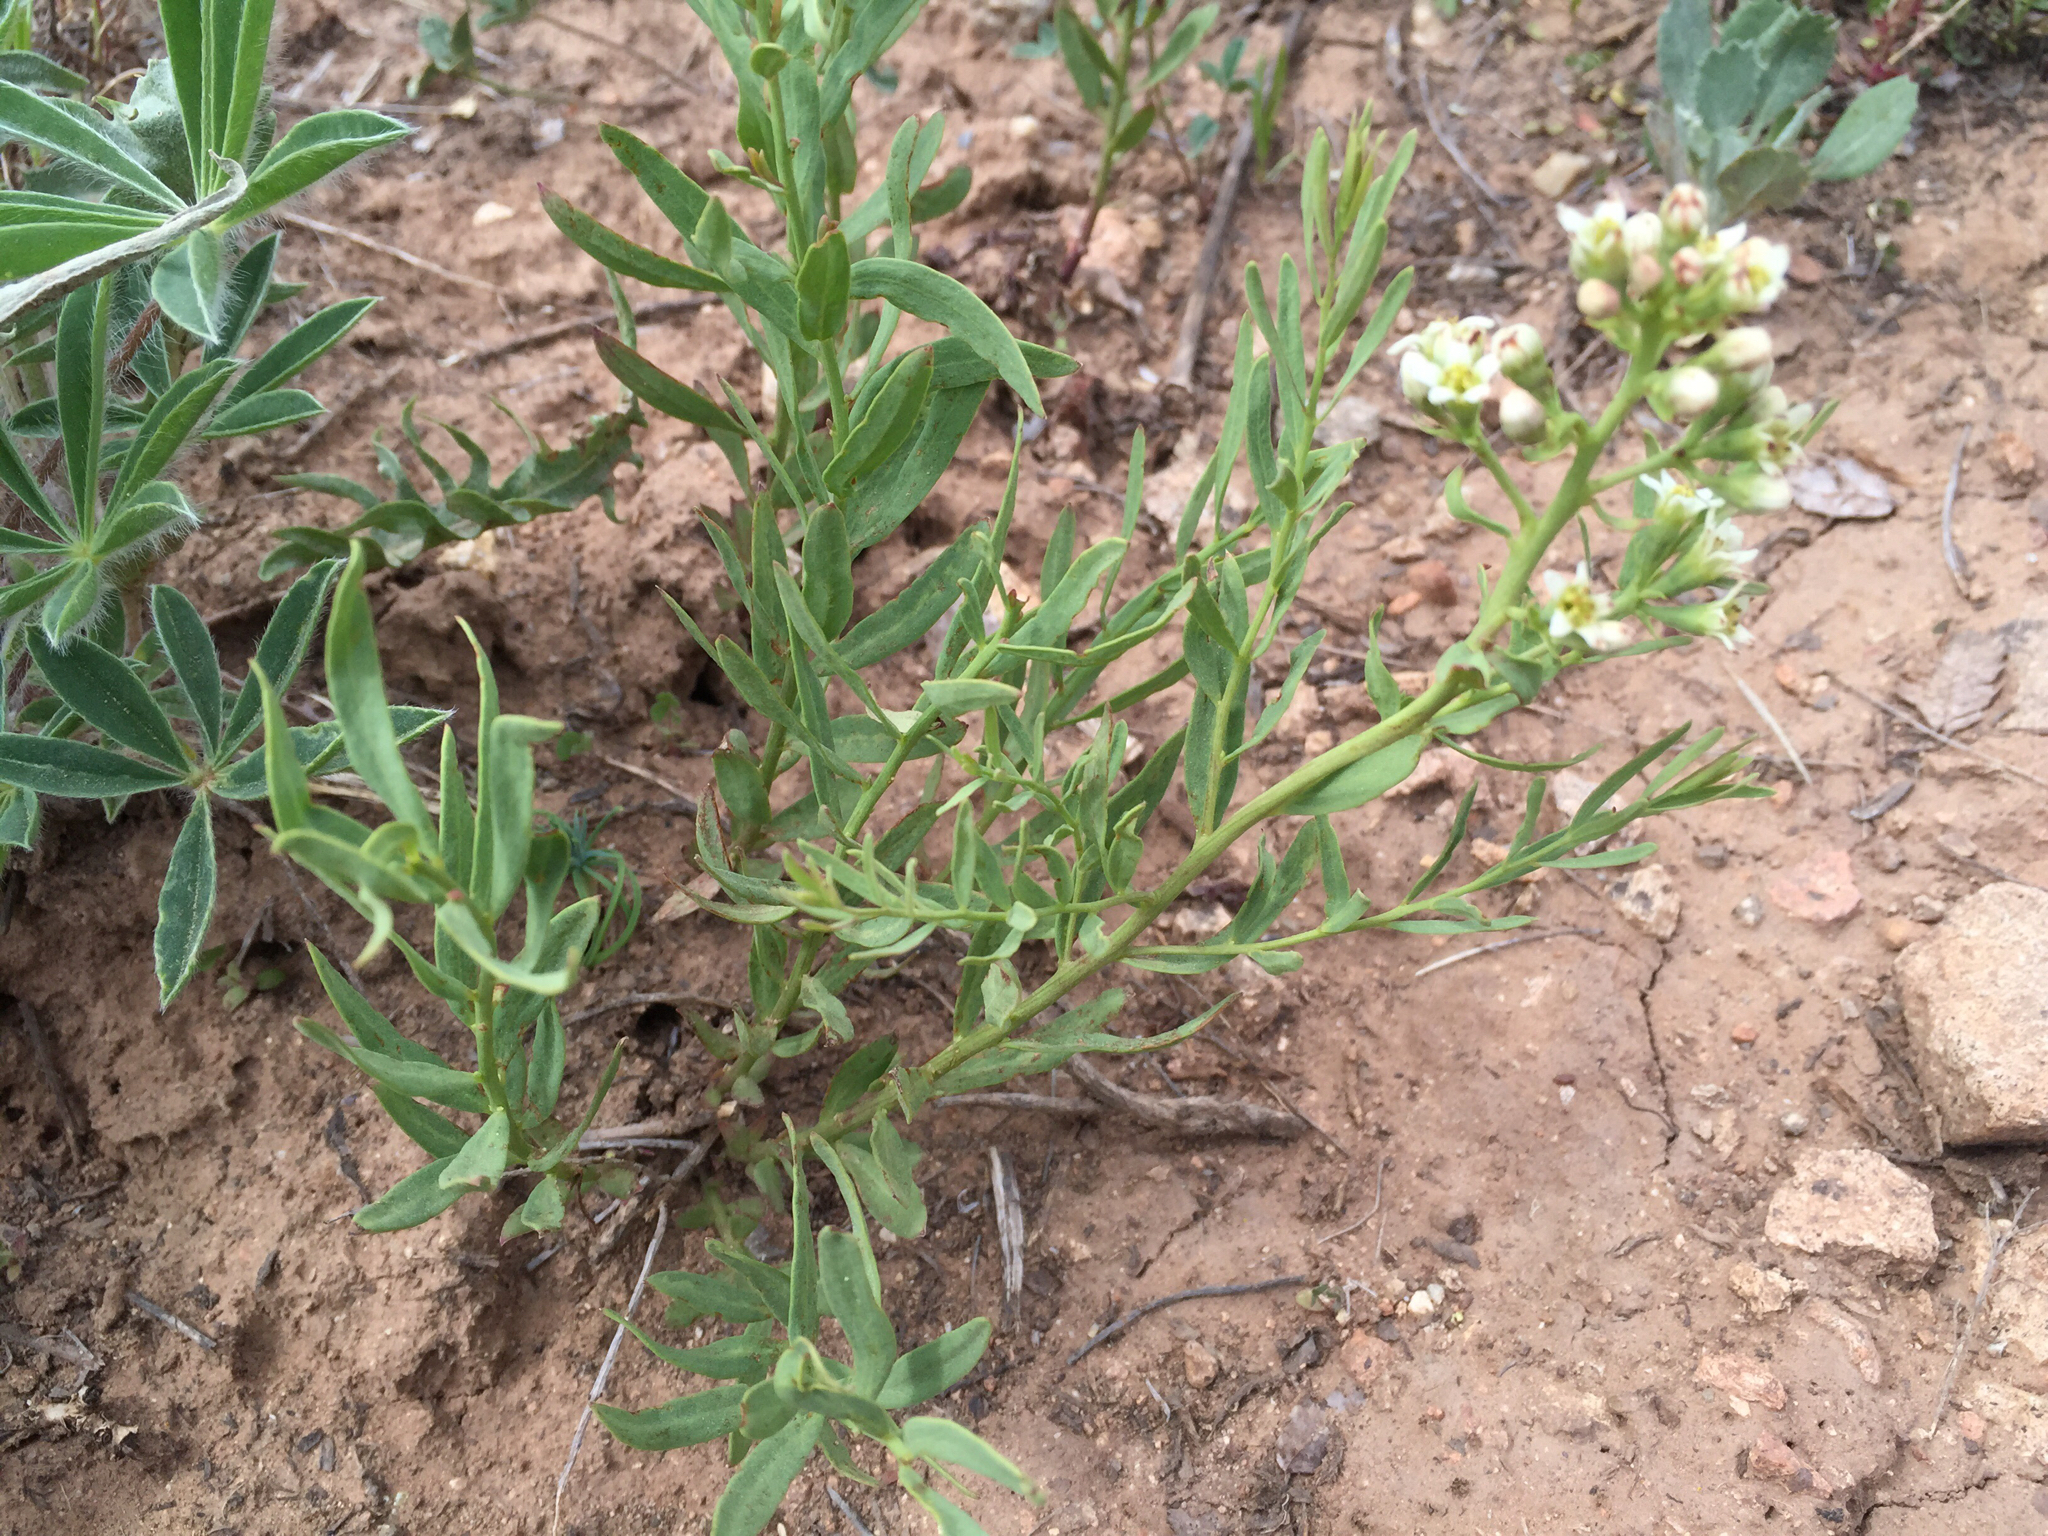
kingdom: Plantae
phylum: Tracheophyta
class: Magnoliopsida
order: Santalales
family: Comandraceae
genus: Comandra
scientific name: Comandra umbellata
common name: Bastard toadflax
